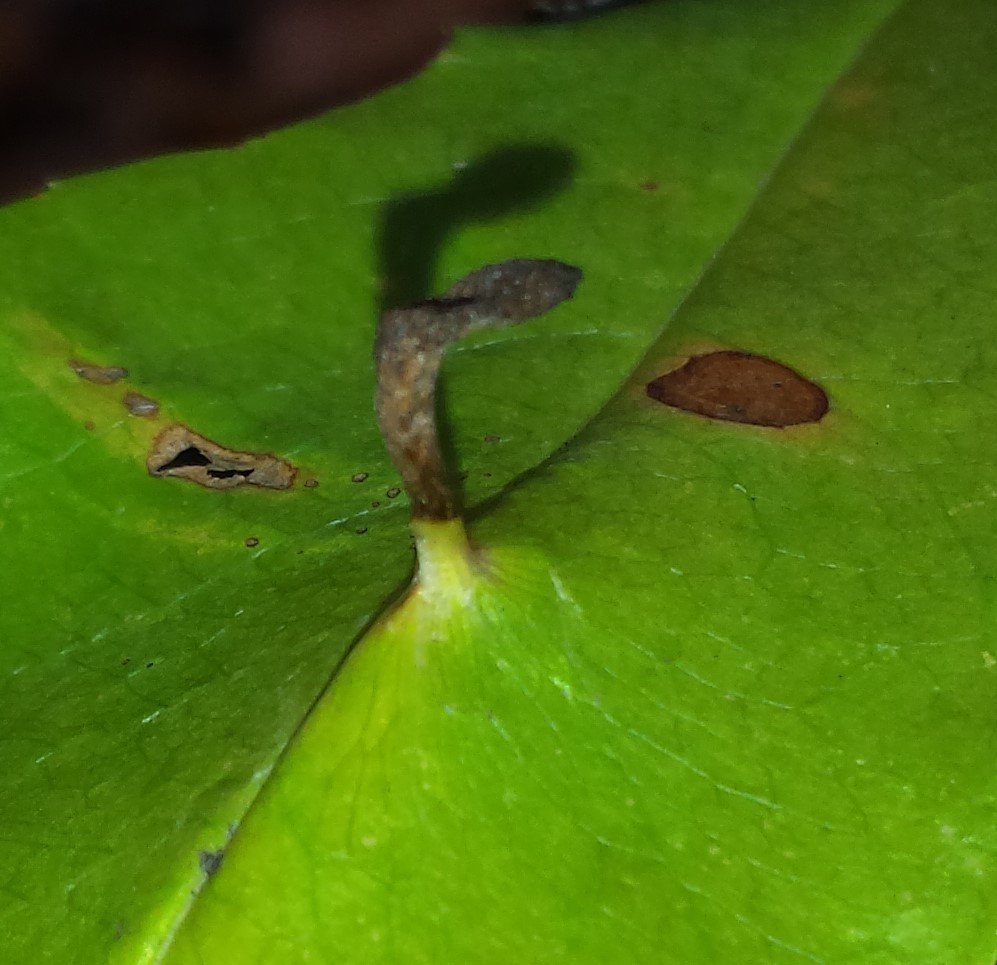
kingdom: Animalia
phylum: Arthropoda
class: Arachnida
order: Trombidiformes
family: Eriophyidae
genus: Eriophyes
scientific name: Eriophyes
